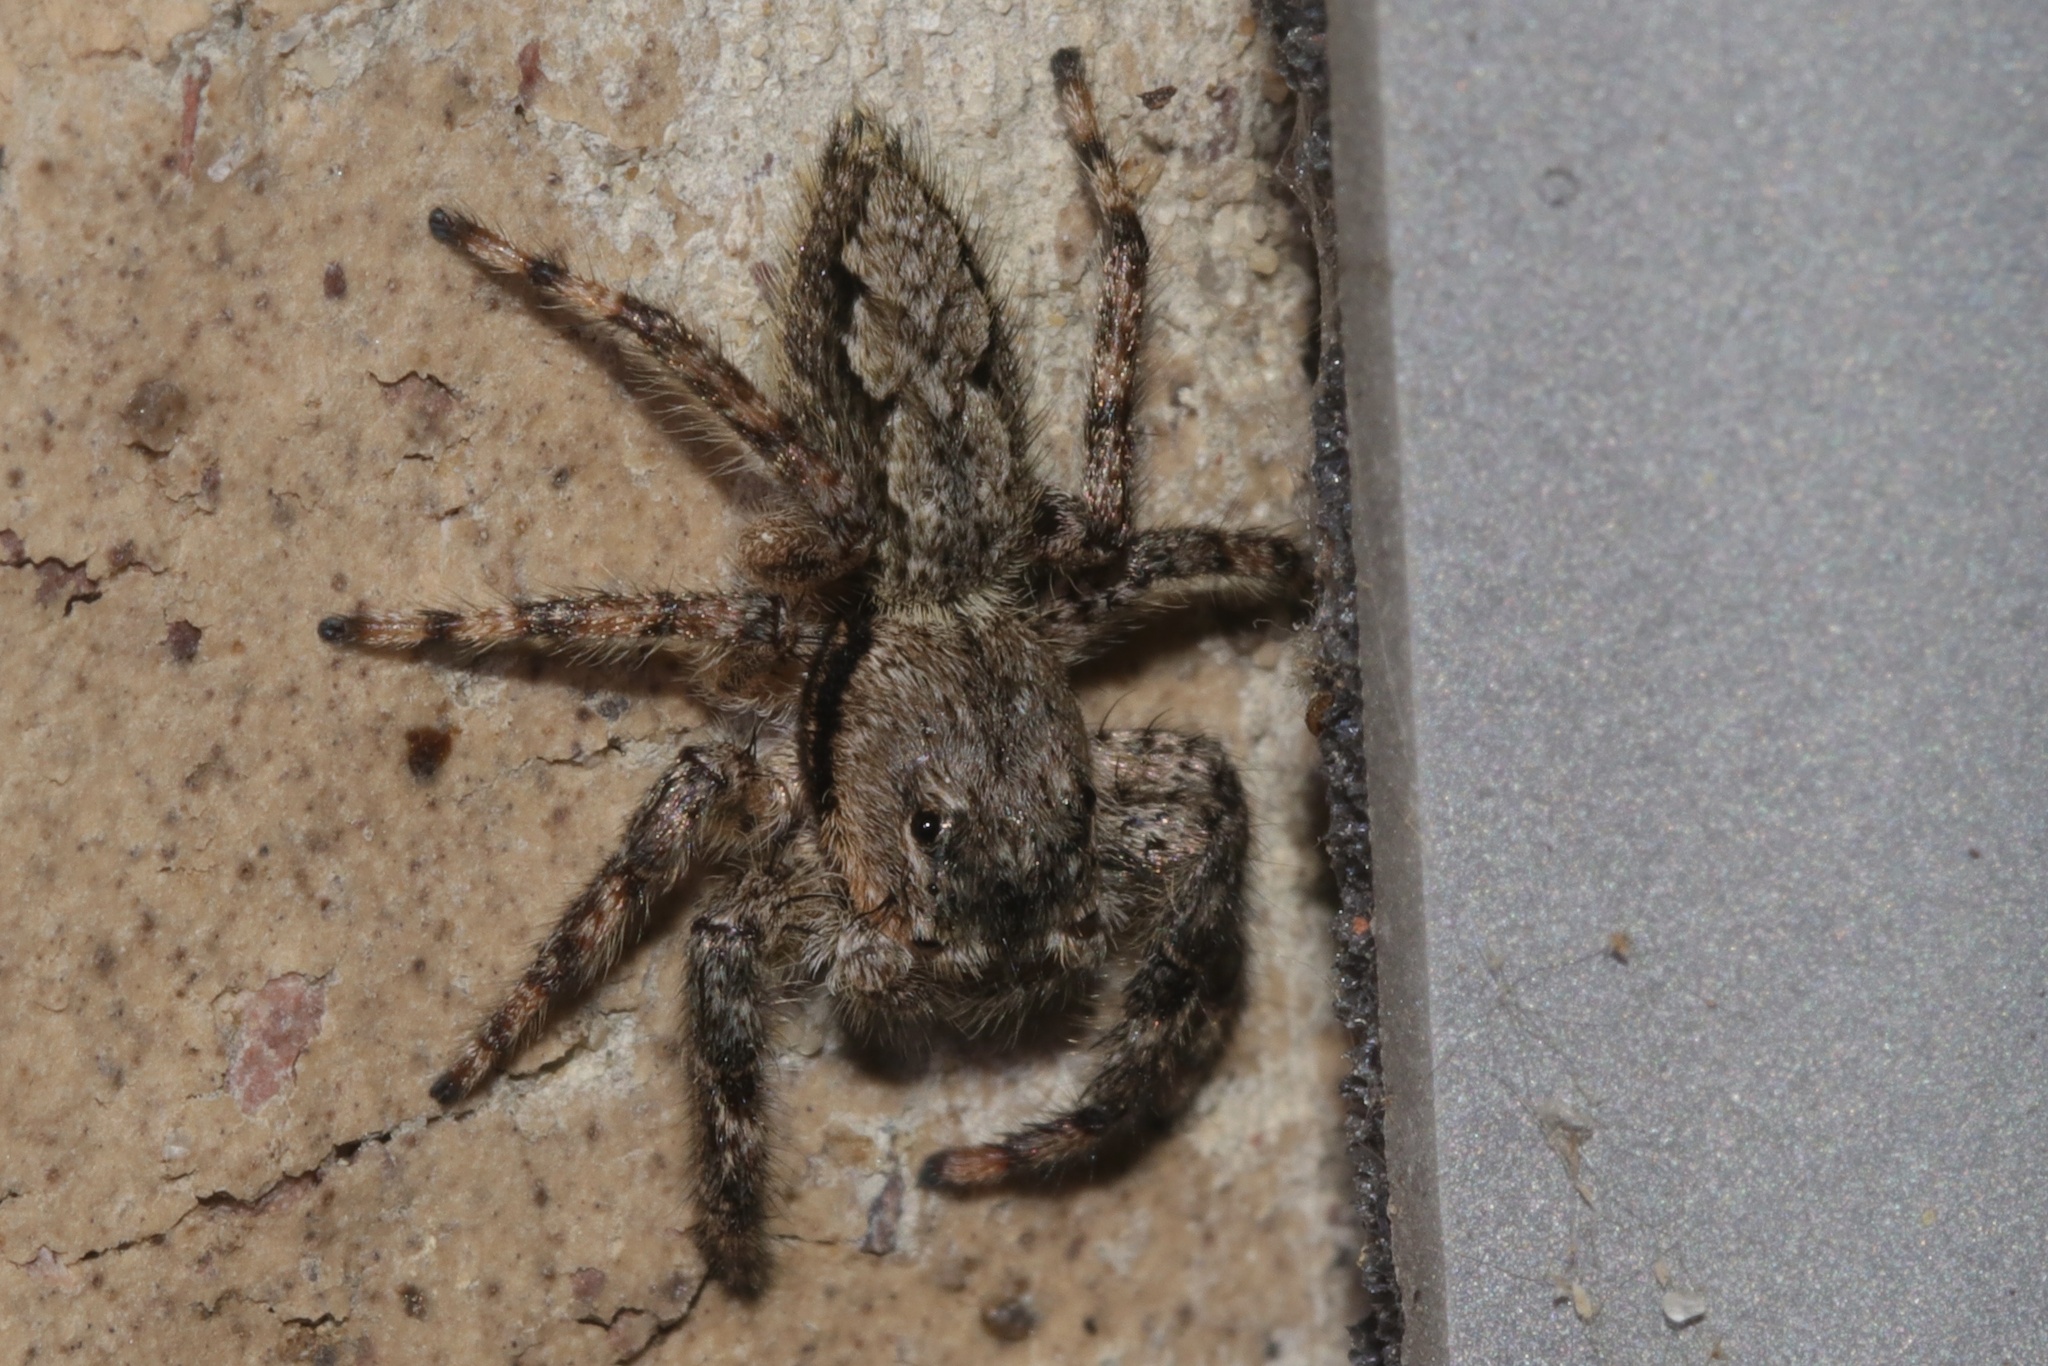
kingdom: Animalia
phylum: Arthropoda
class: Arachnida
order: Araneae
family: Salticidae
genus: Platycryptus
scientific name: Platycryptus undatus
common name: Tan jumping spider
